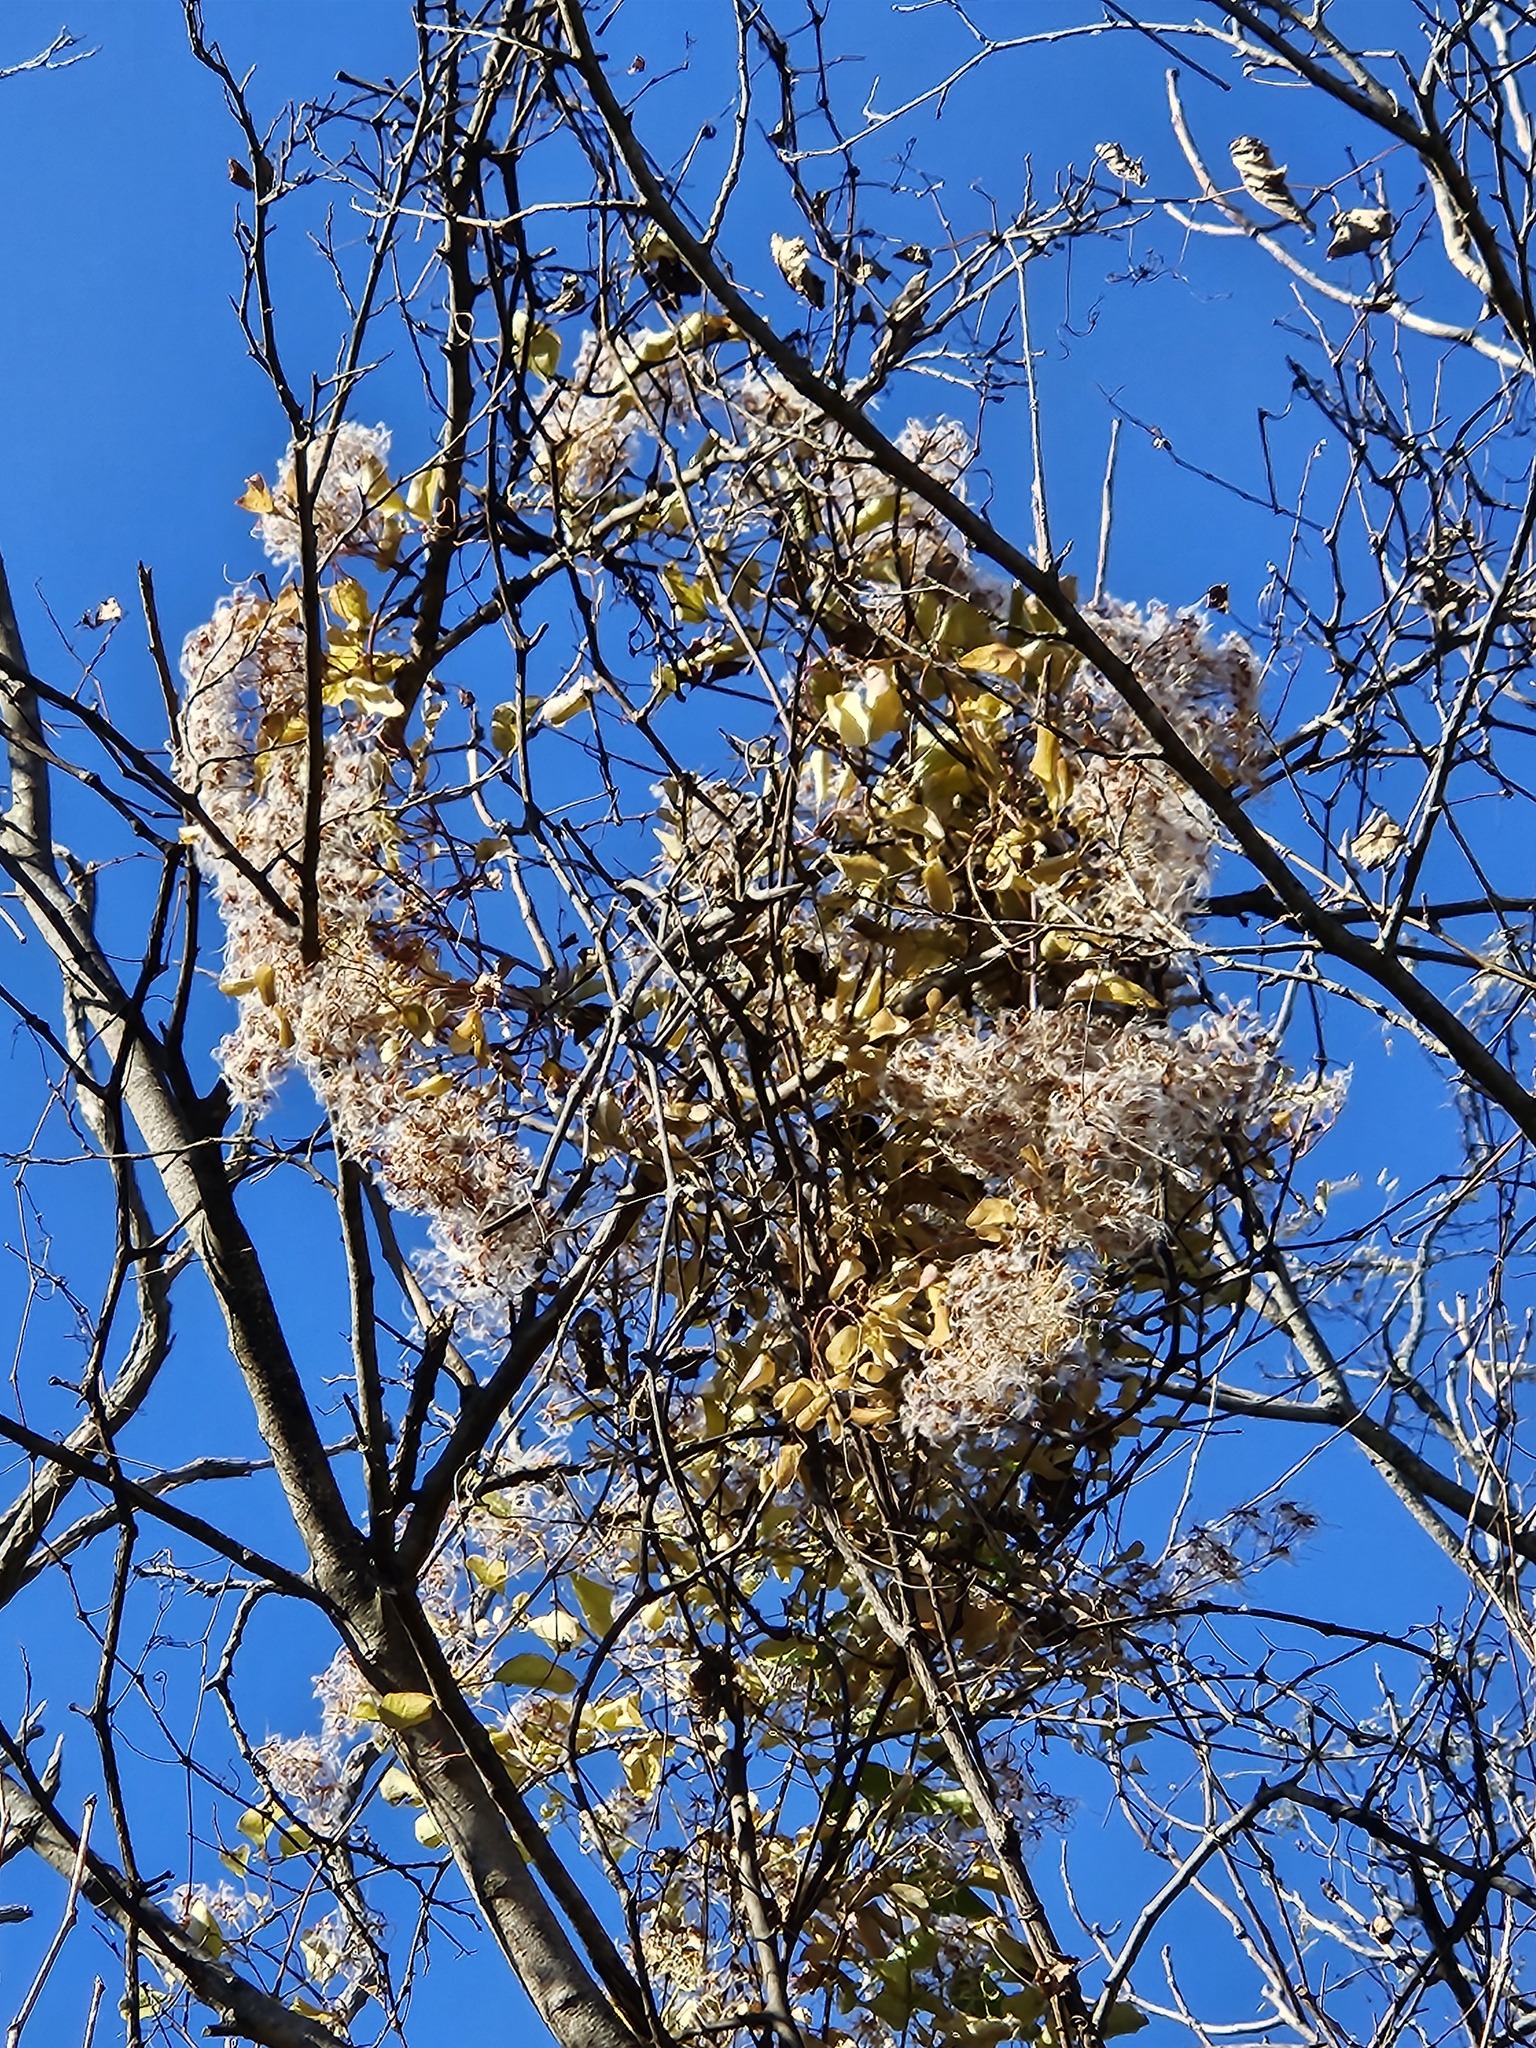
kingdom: Plantae
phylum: Tracheophyta
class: Magnoliopsida
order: Ranunculales
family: Ranunculaceae
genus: Clematis
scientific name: Clematis terniflora
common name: Sweet autumn clematis
